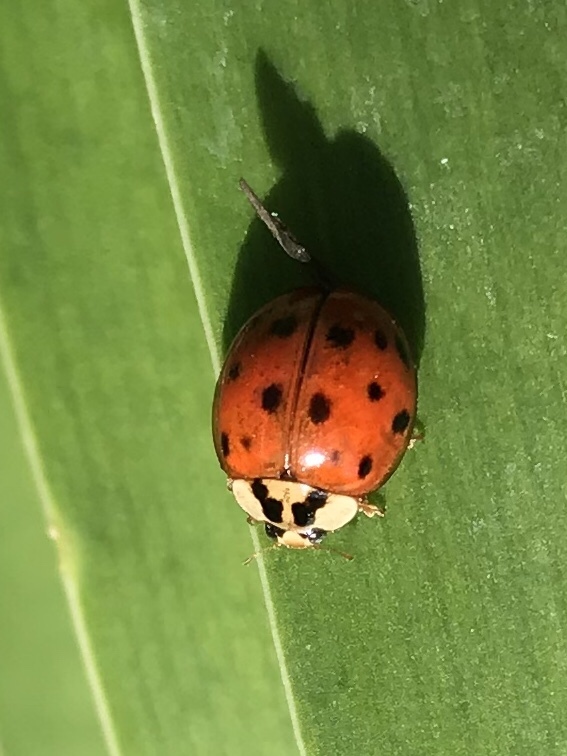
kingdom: Animalia
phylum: Arthropoda
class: Insecta
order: Coleoptera
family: Coccinellidae
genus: Harmonia
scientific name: Harmonia axyridis
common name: Harlequin ladybird
